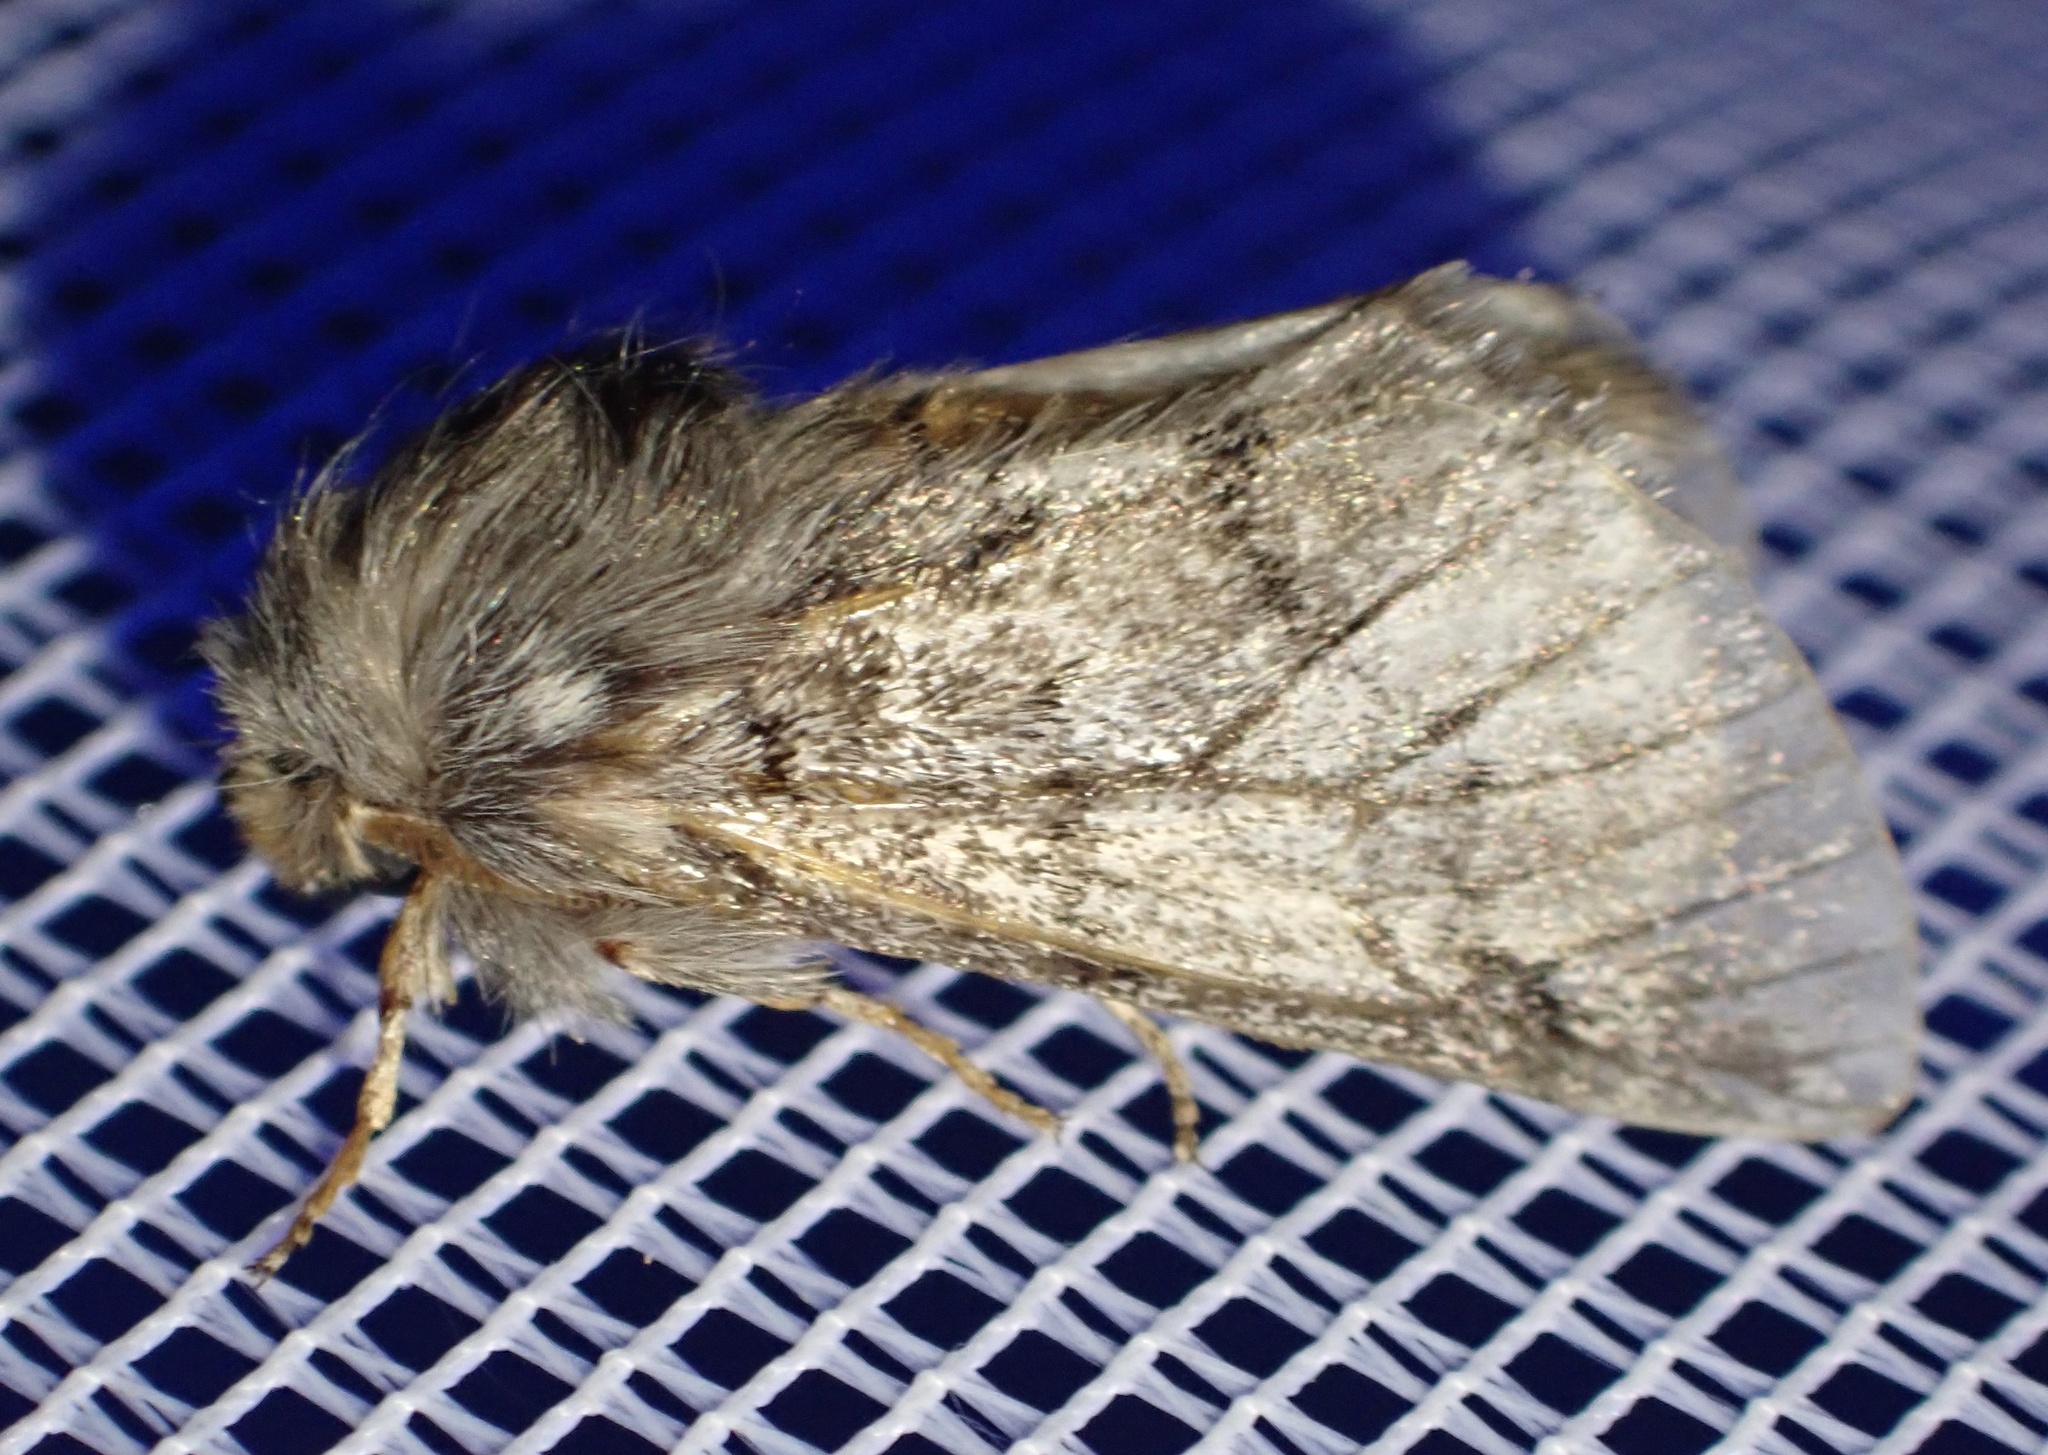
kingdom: Animalia
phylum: Arthropoda
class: Insecta
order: Lepidoptera
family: Notodontidae
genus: Thaumetopoea
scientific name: Thaumetopoea pityocampa
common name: Pine processionary
